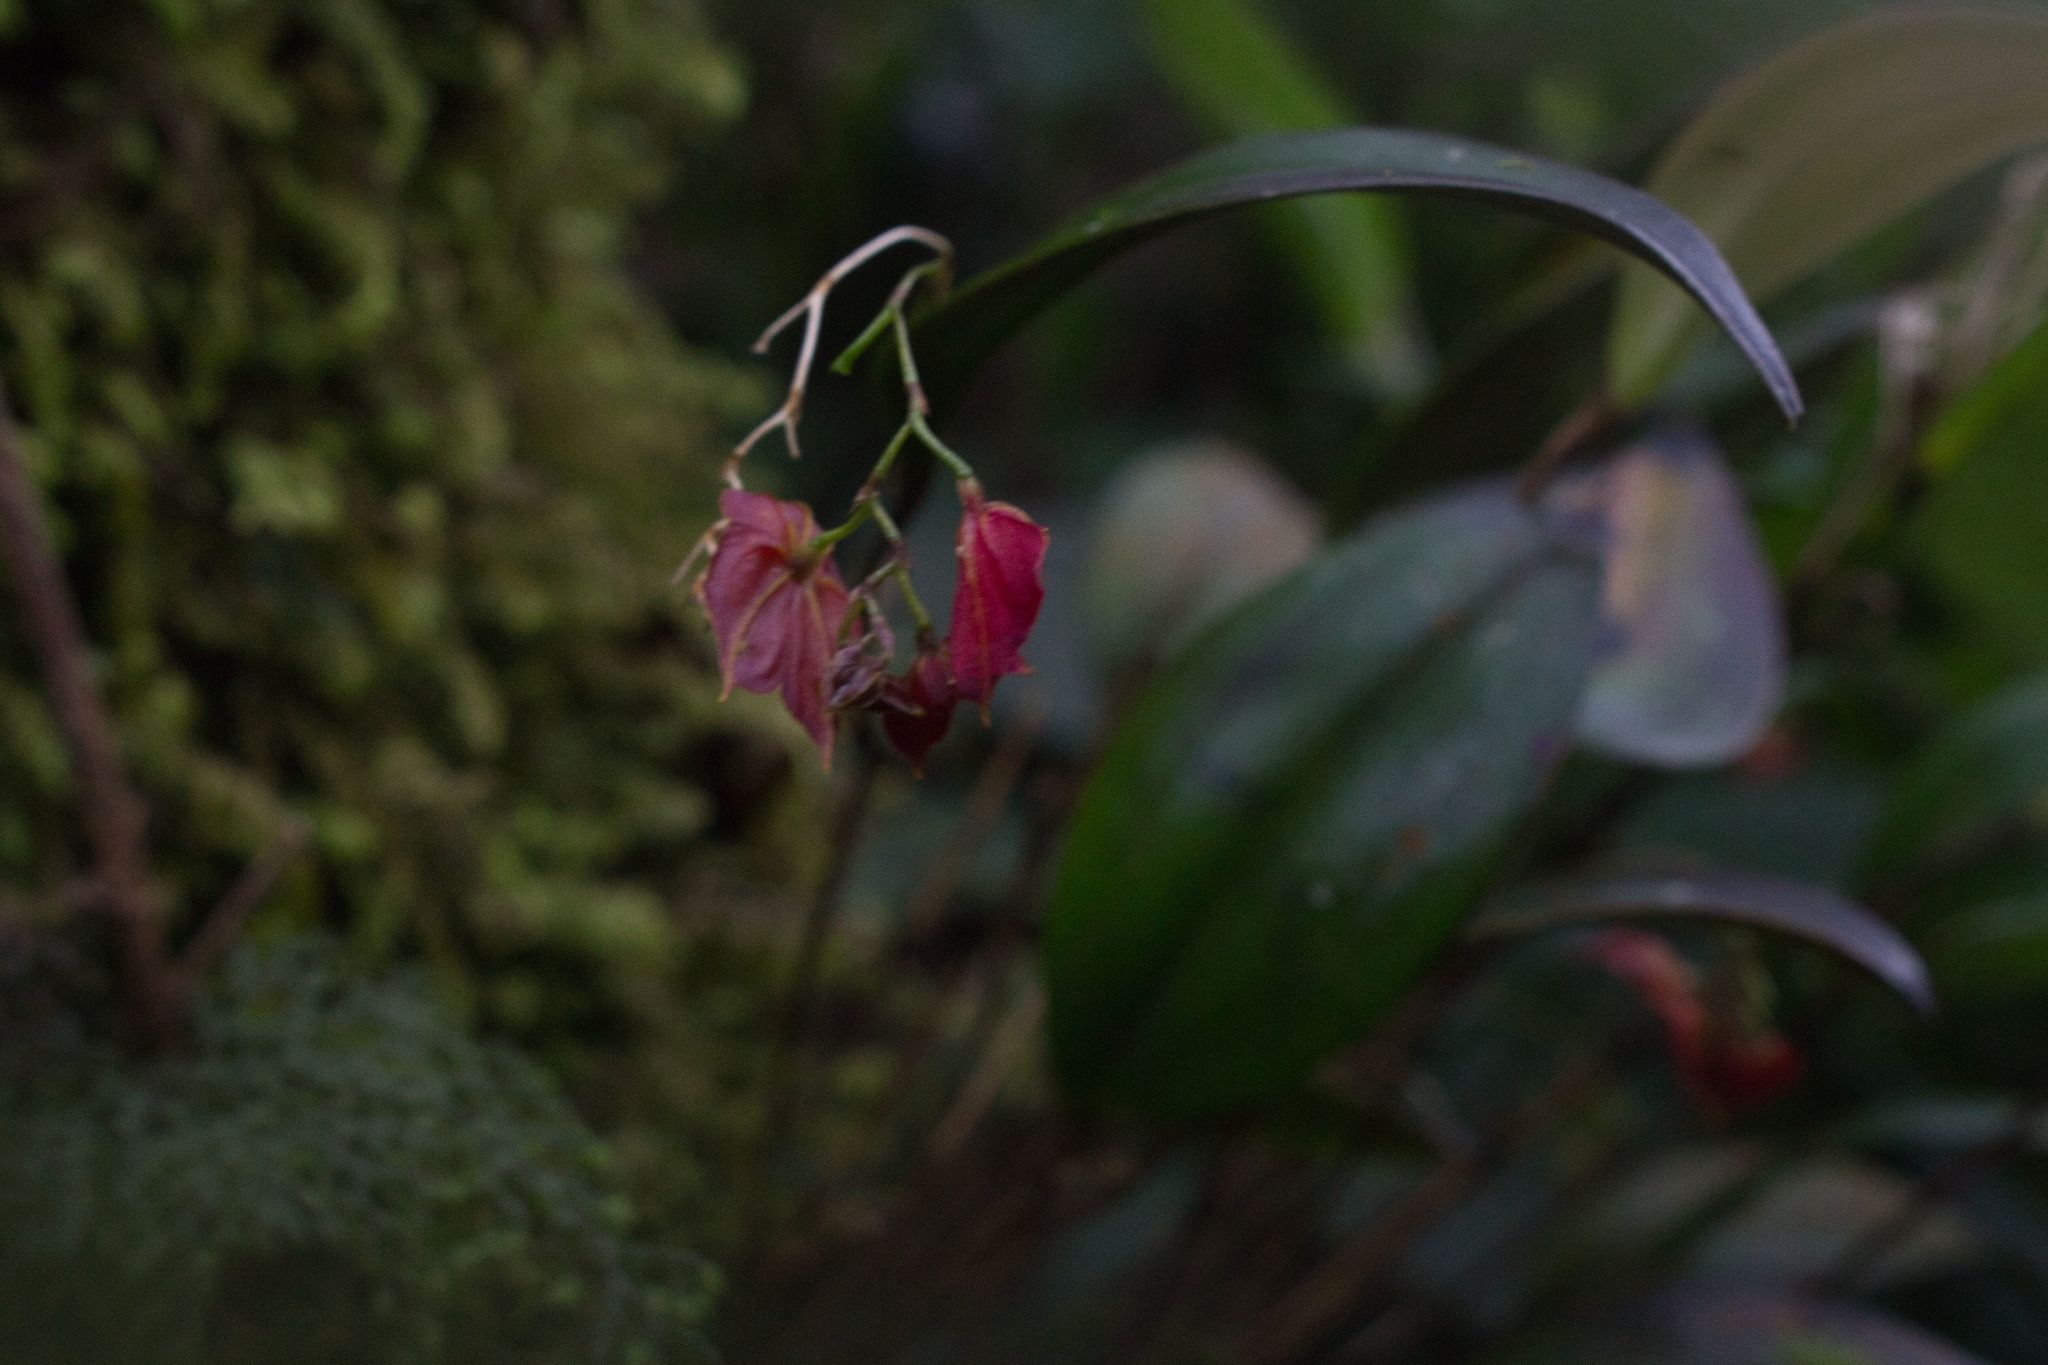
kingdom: Plantae
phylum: Tracheophyta
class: Liliopsida
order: Asparagales
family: Orchidaceae
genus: Lepanthes
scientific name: Lepanthes wendlandii
